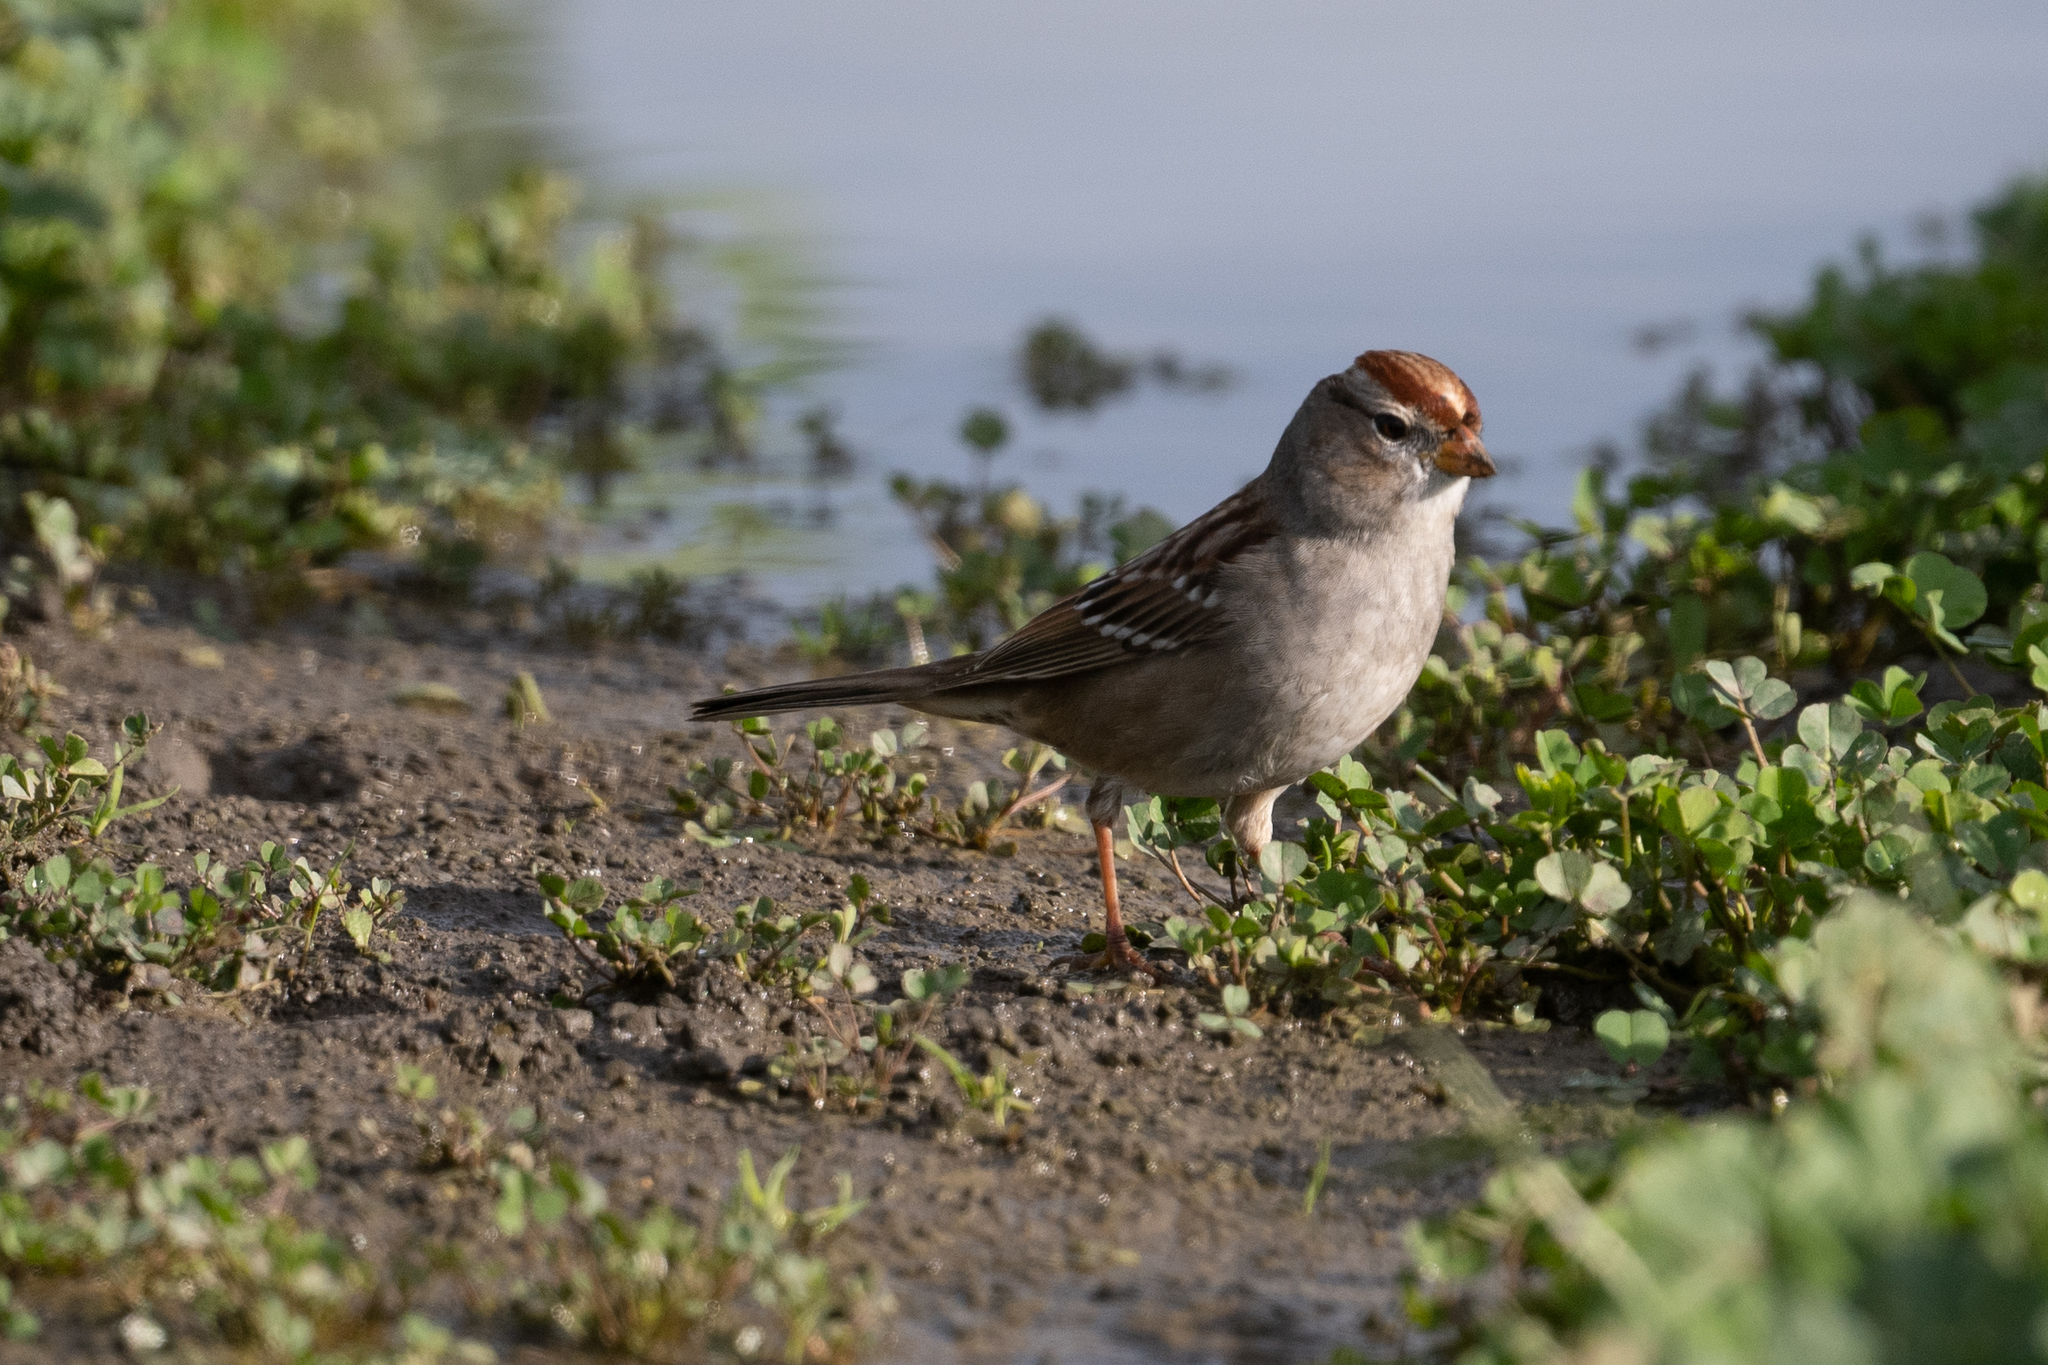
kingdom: Animalia
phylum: Chordata
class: Aves
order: Passeriformes
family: Passerellidae
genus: Zonotrichia
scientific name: Zonotrichia leucophrys
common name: White-crowned sparrow
